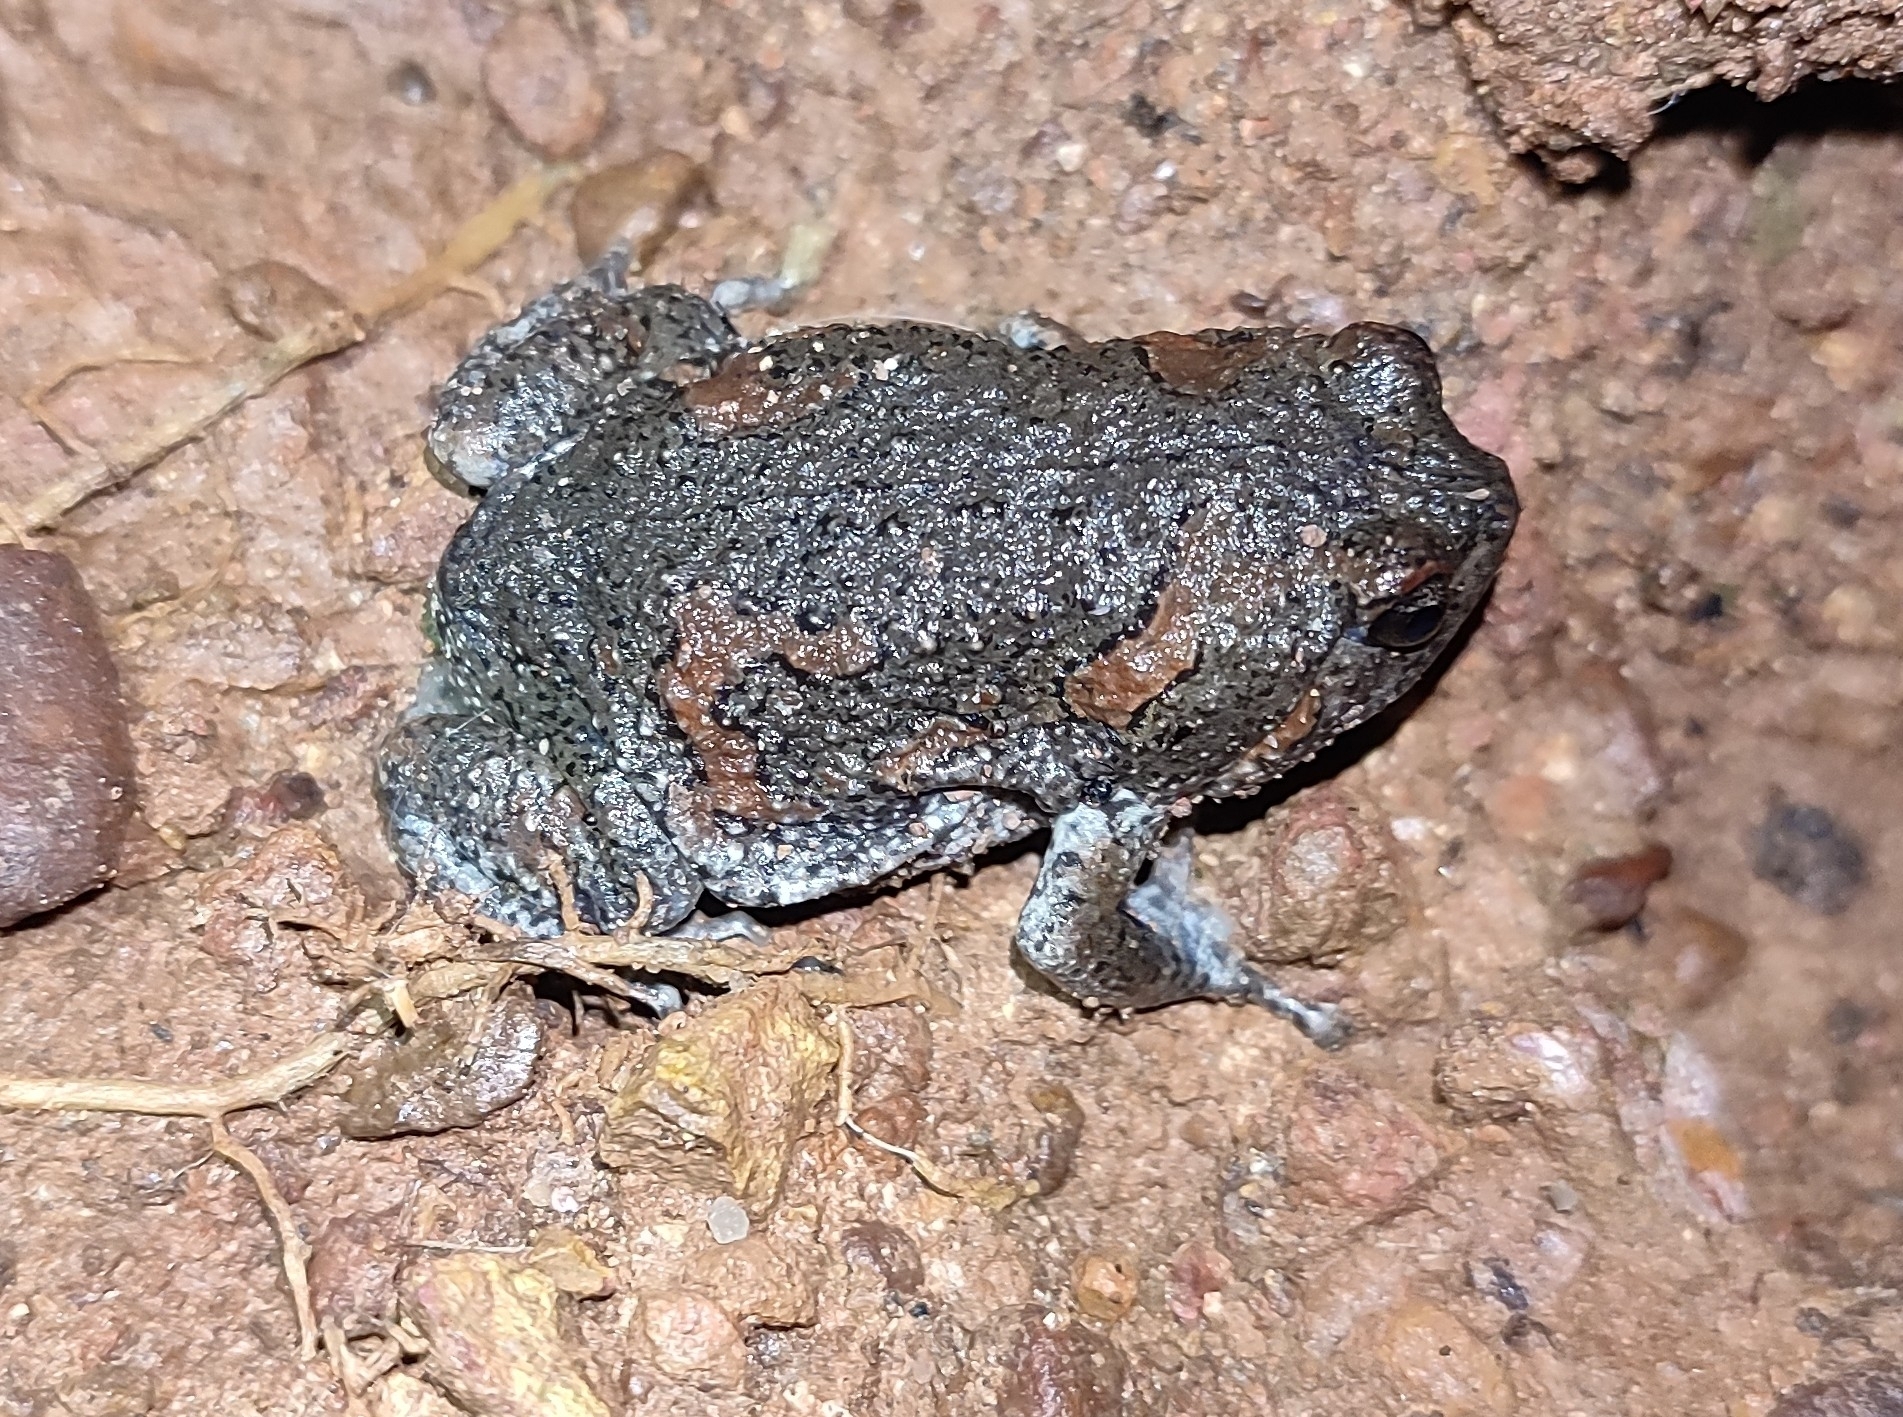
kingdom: Animalia
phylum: Chordata
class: Amphibia
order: Anura
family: Microhylidae
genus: Uperodon
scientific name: Uperodon taprobanicus
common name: Ceylon kaloula
